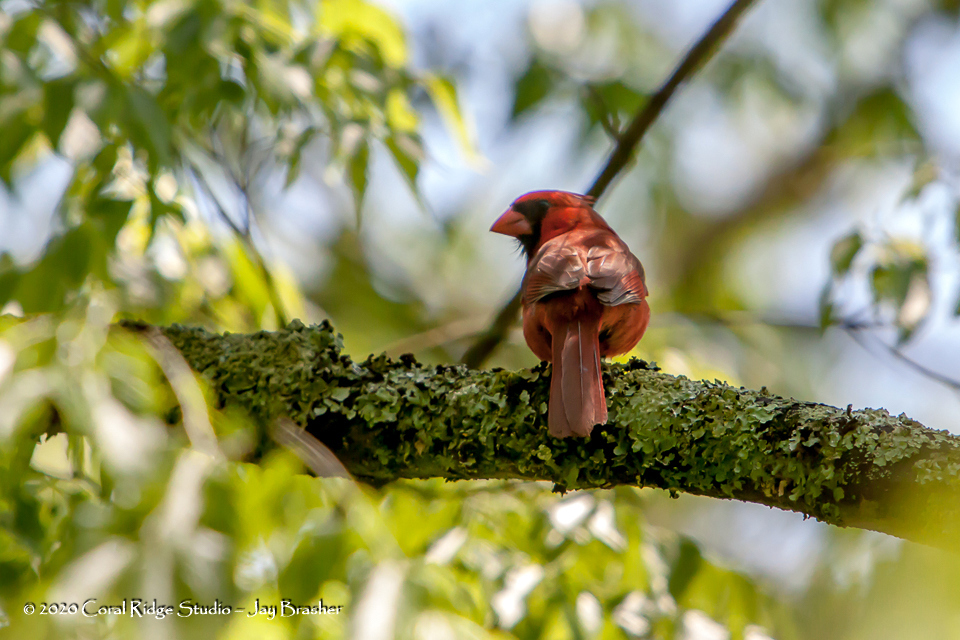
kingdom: Animalia
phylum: Chordata
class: Aves
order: Passeriformes
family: Cardinalidae
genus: Cardinalis
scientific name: Cardinalis cardinalis
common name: Northern cardinal
